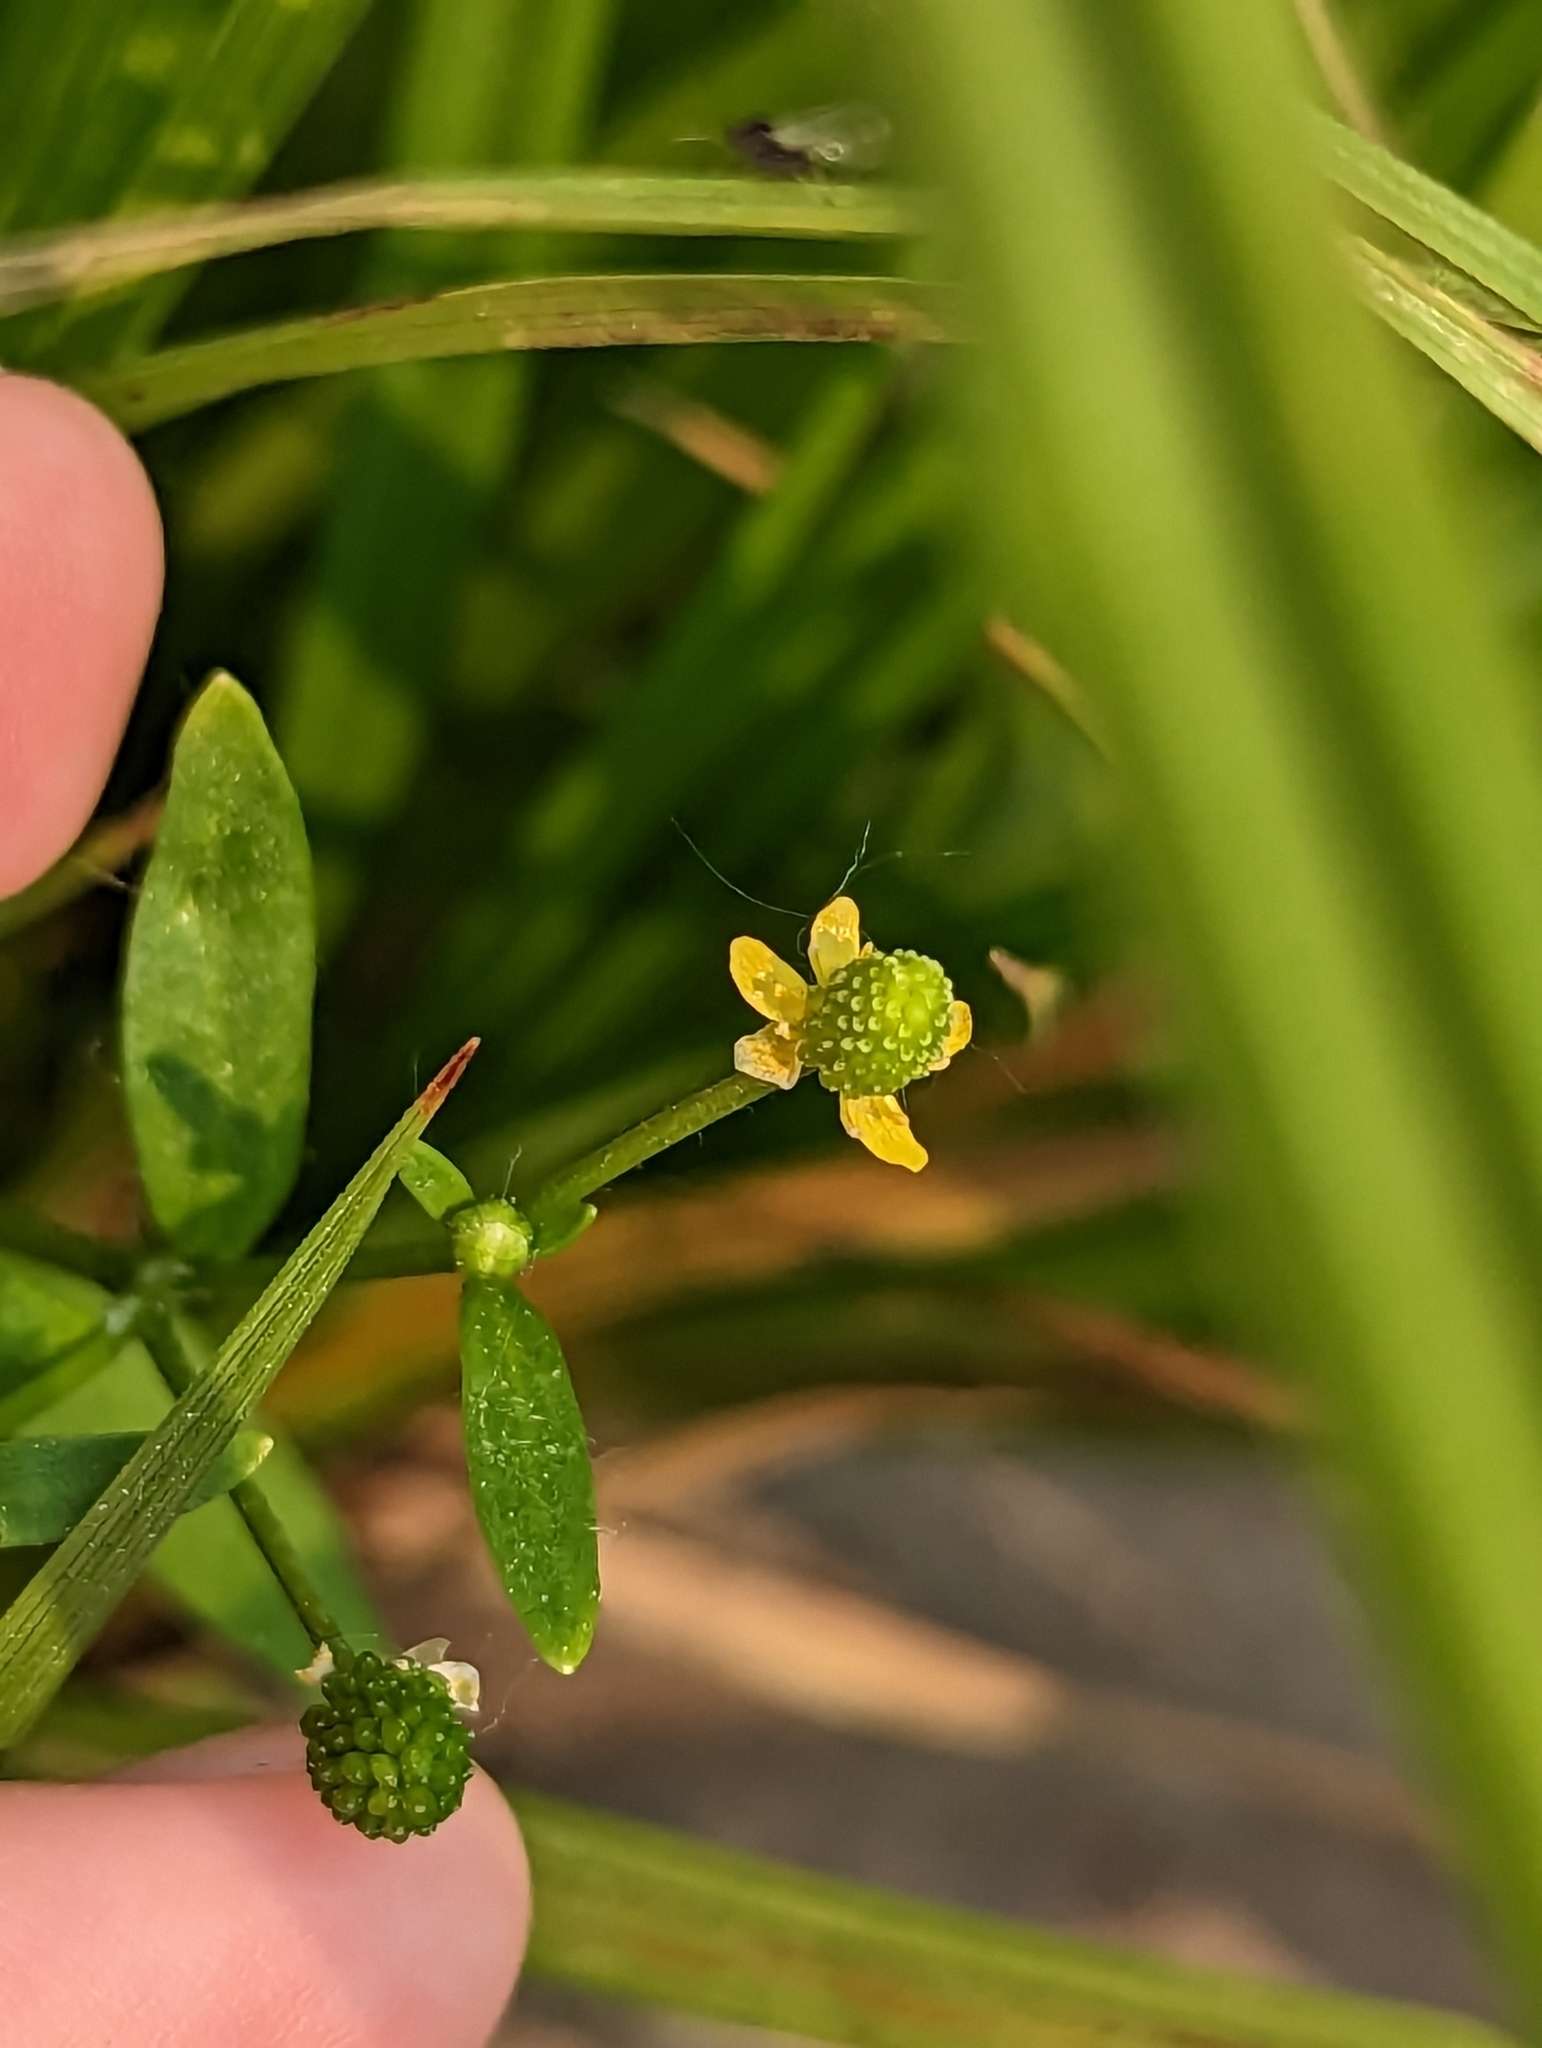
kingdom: Plantae
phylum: Tracheophyta
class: Magnoliopsida
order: Ranunculales
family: Ranunculaceae
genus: Ranunculus
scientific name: Ranunculus sceleratus
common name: Celery-leaved buttercup
